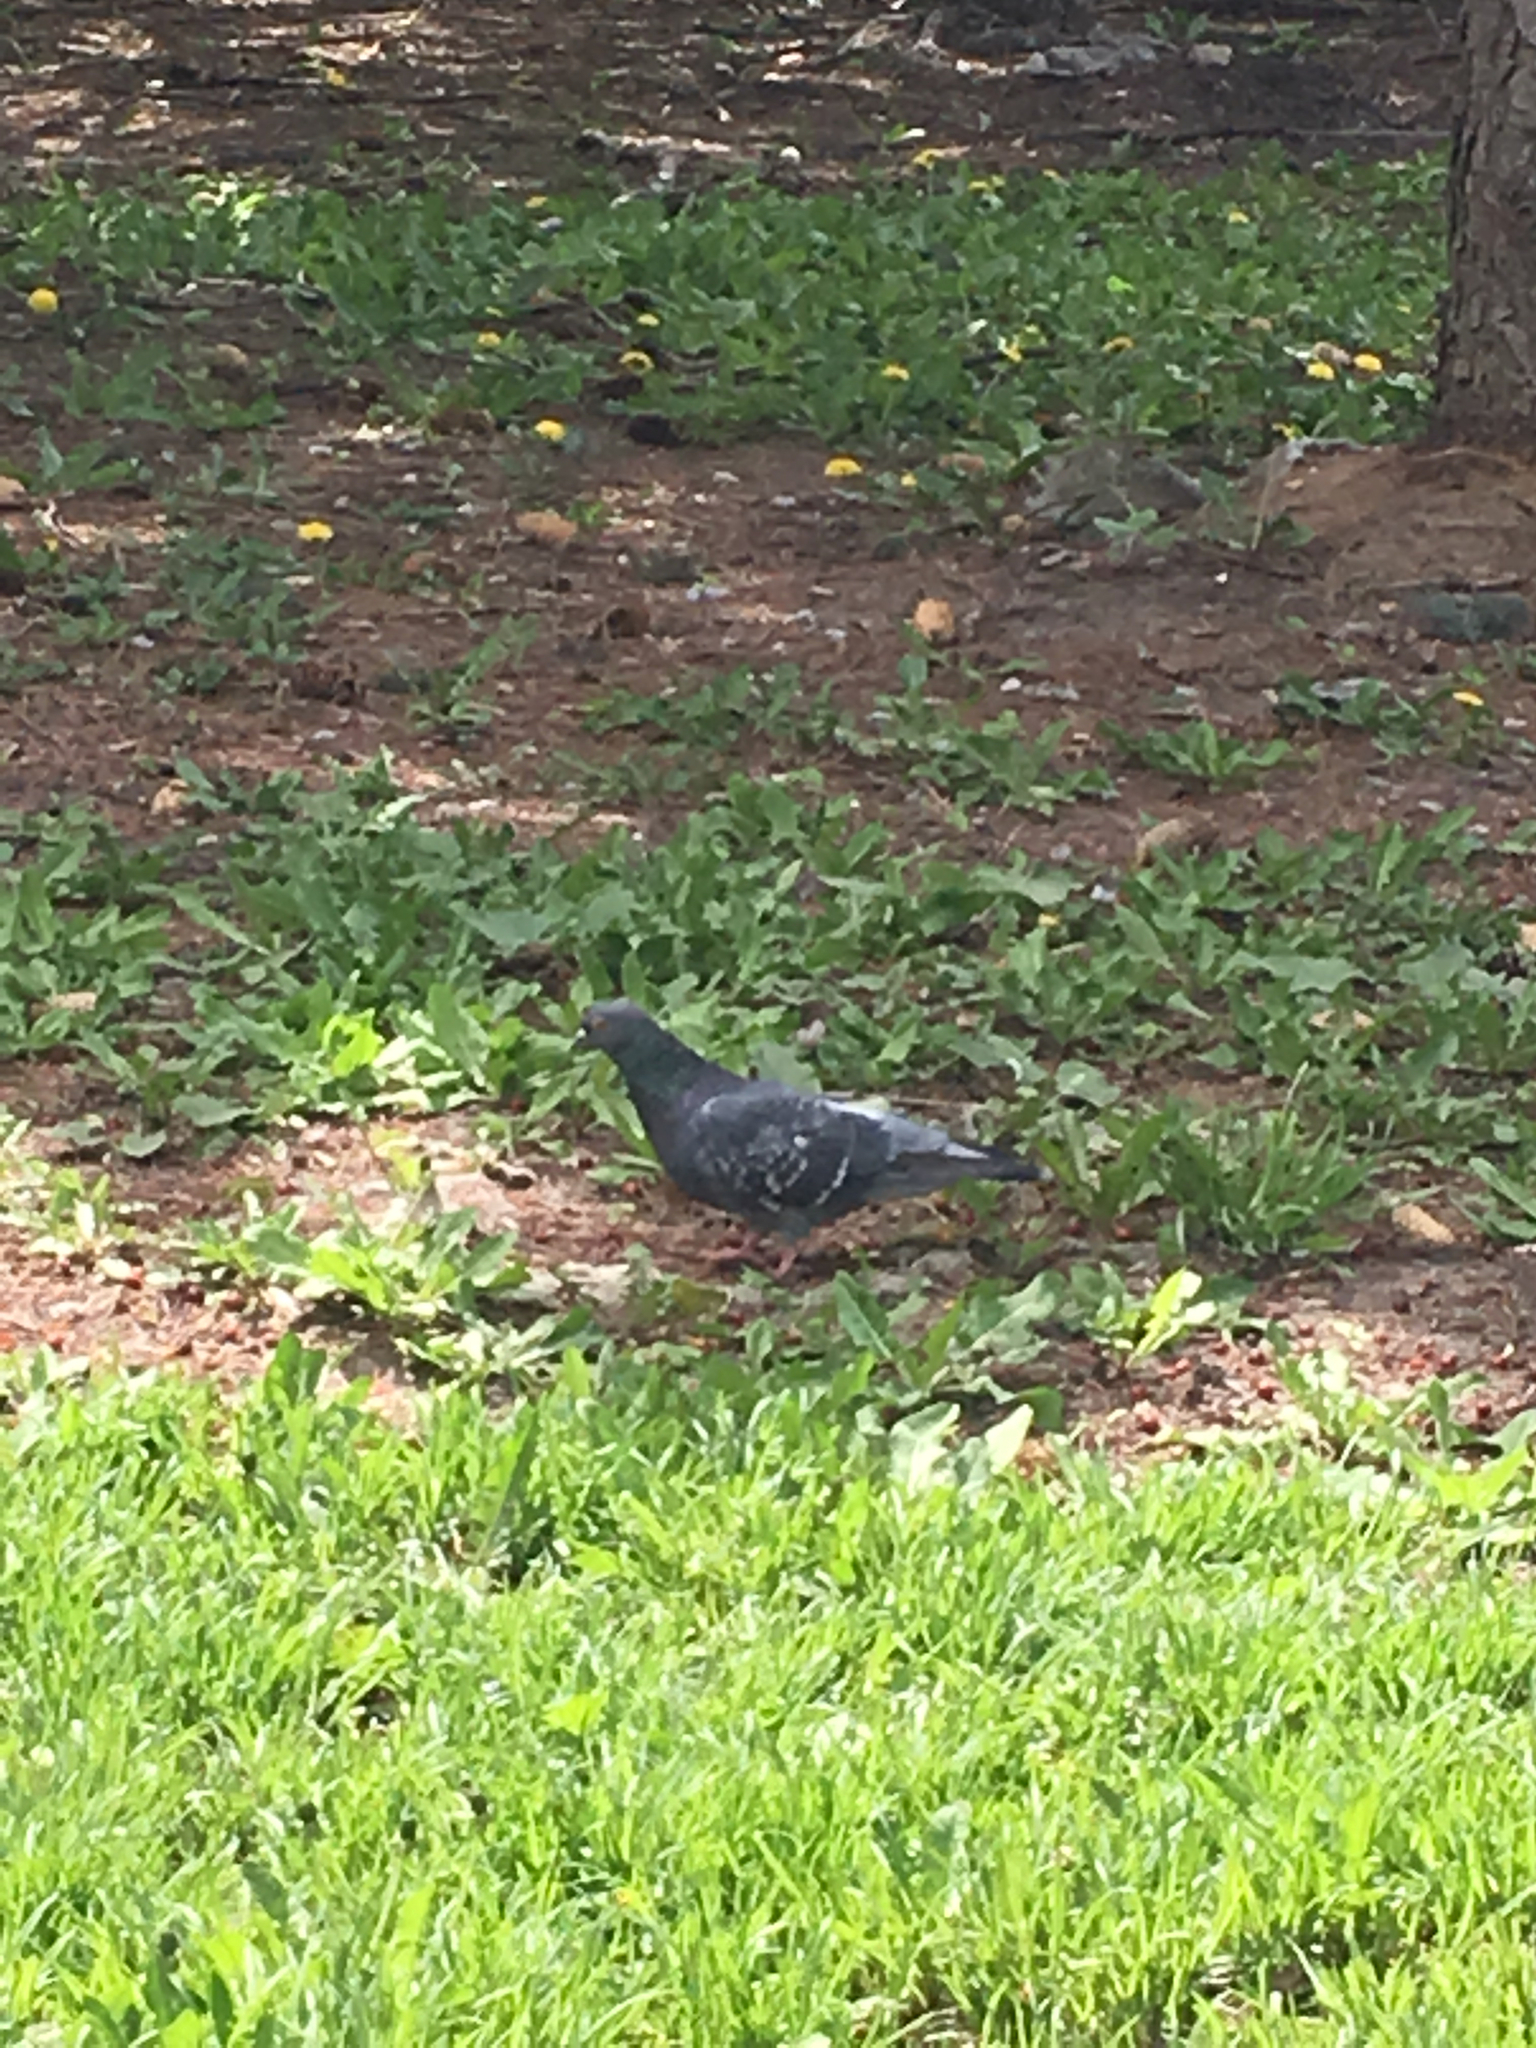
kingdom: Animalia
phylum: Chordata
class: Aves
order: Columbiformes
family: Columbidae
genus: Columba
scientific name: Columba livia
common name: Rock pigeon
